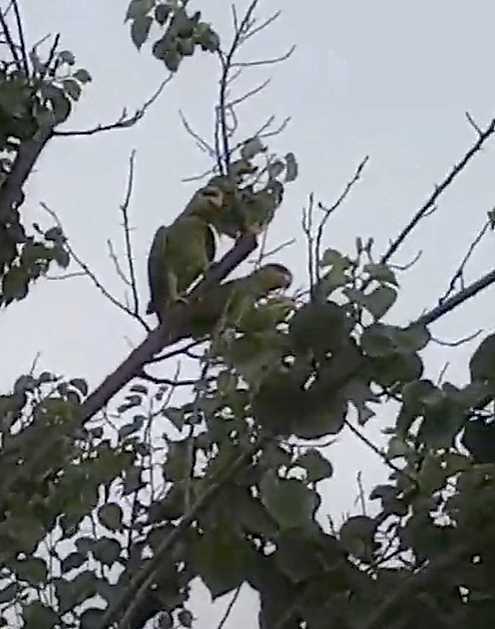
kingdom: Animalia
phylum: Chordata
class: Aves
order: Psittaciformes
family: Psittacidae
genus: Amazona
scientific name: Amazona finschi
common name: Lilac-crowned amazon
